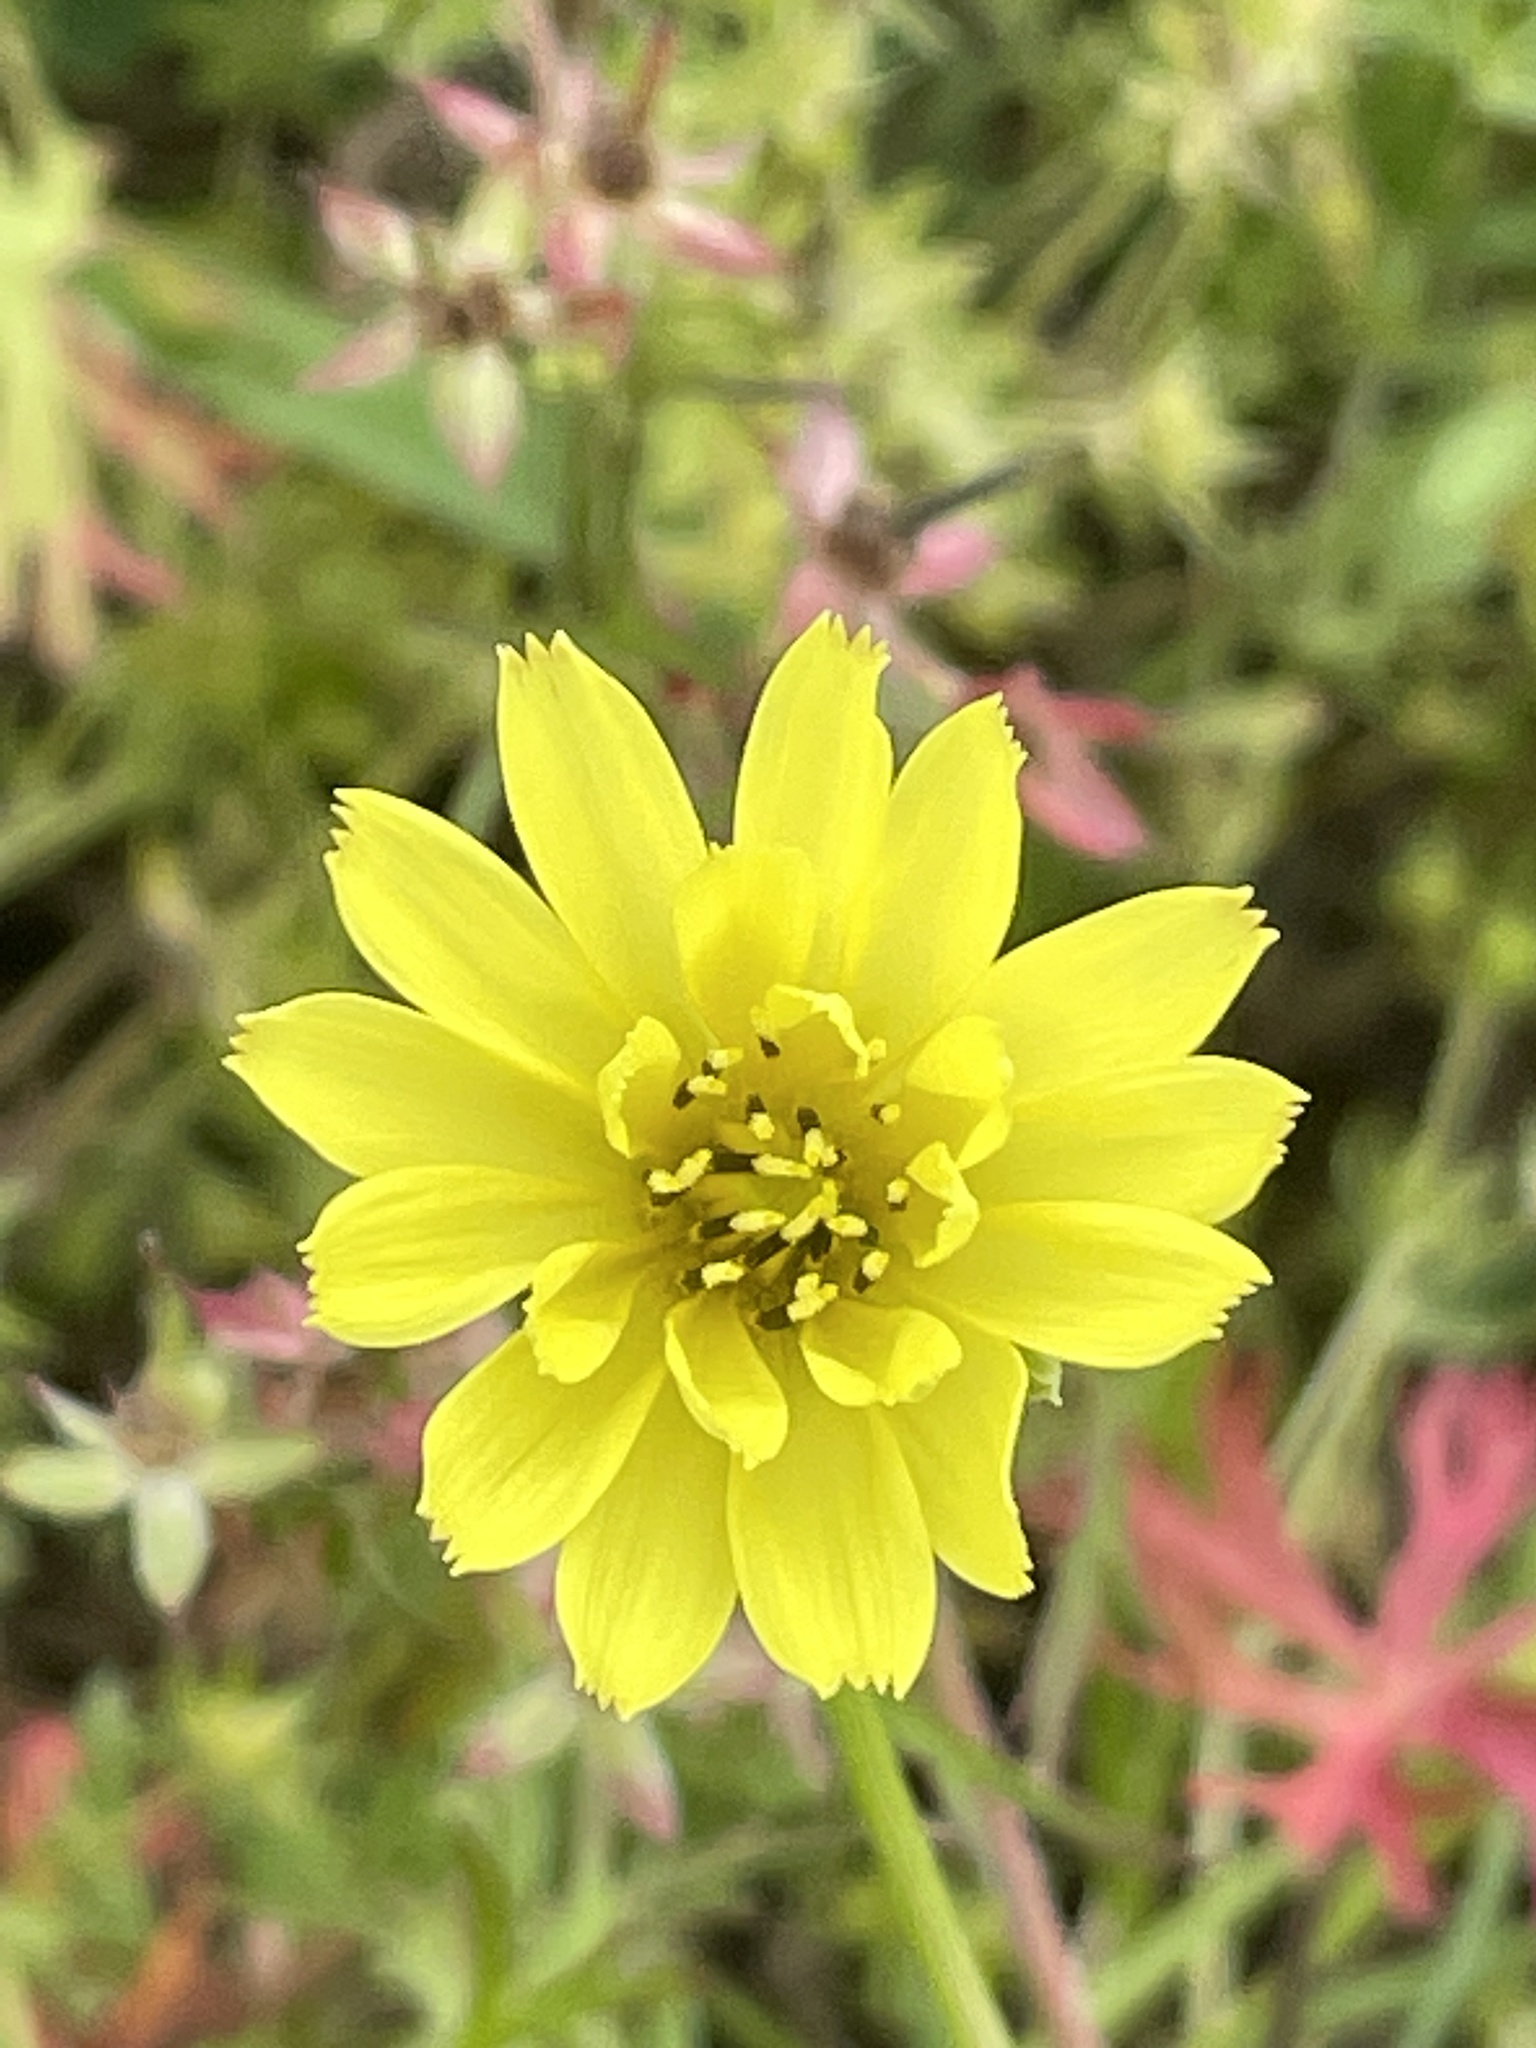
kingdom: Plantae
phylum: Tracheophyta
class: Magnoliopsida
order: Asterales
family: Asteraceae
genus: Pyrrhopappus
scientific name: Pyrrhopappus pauciflorus
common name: Texas false dandelion
